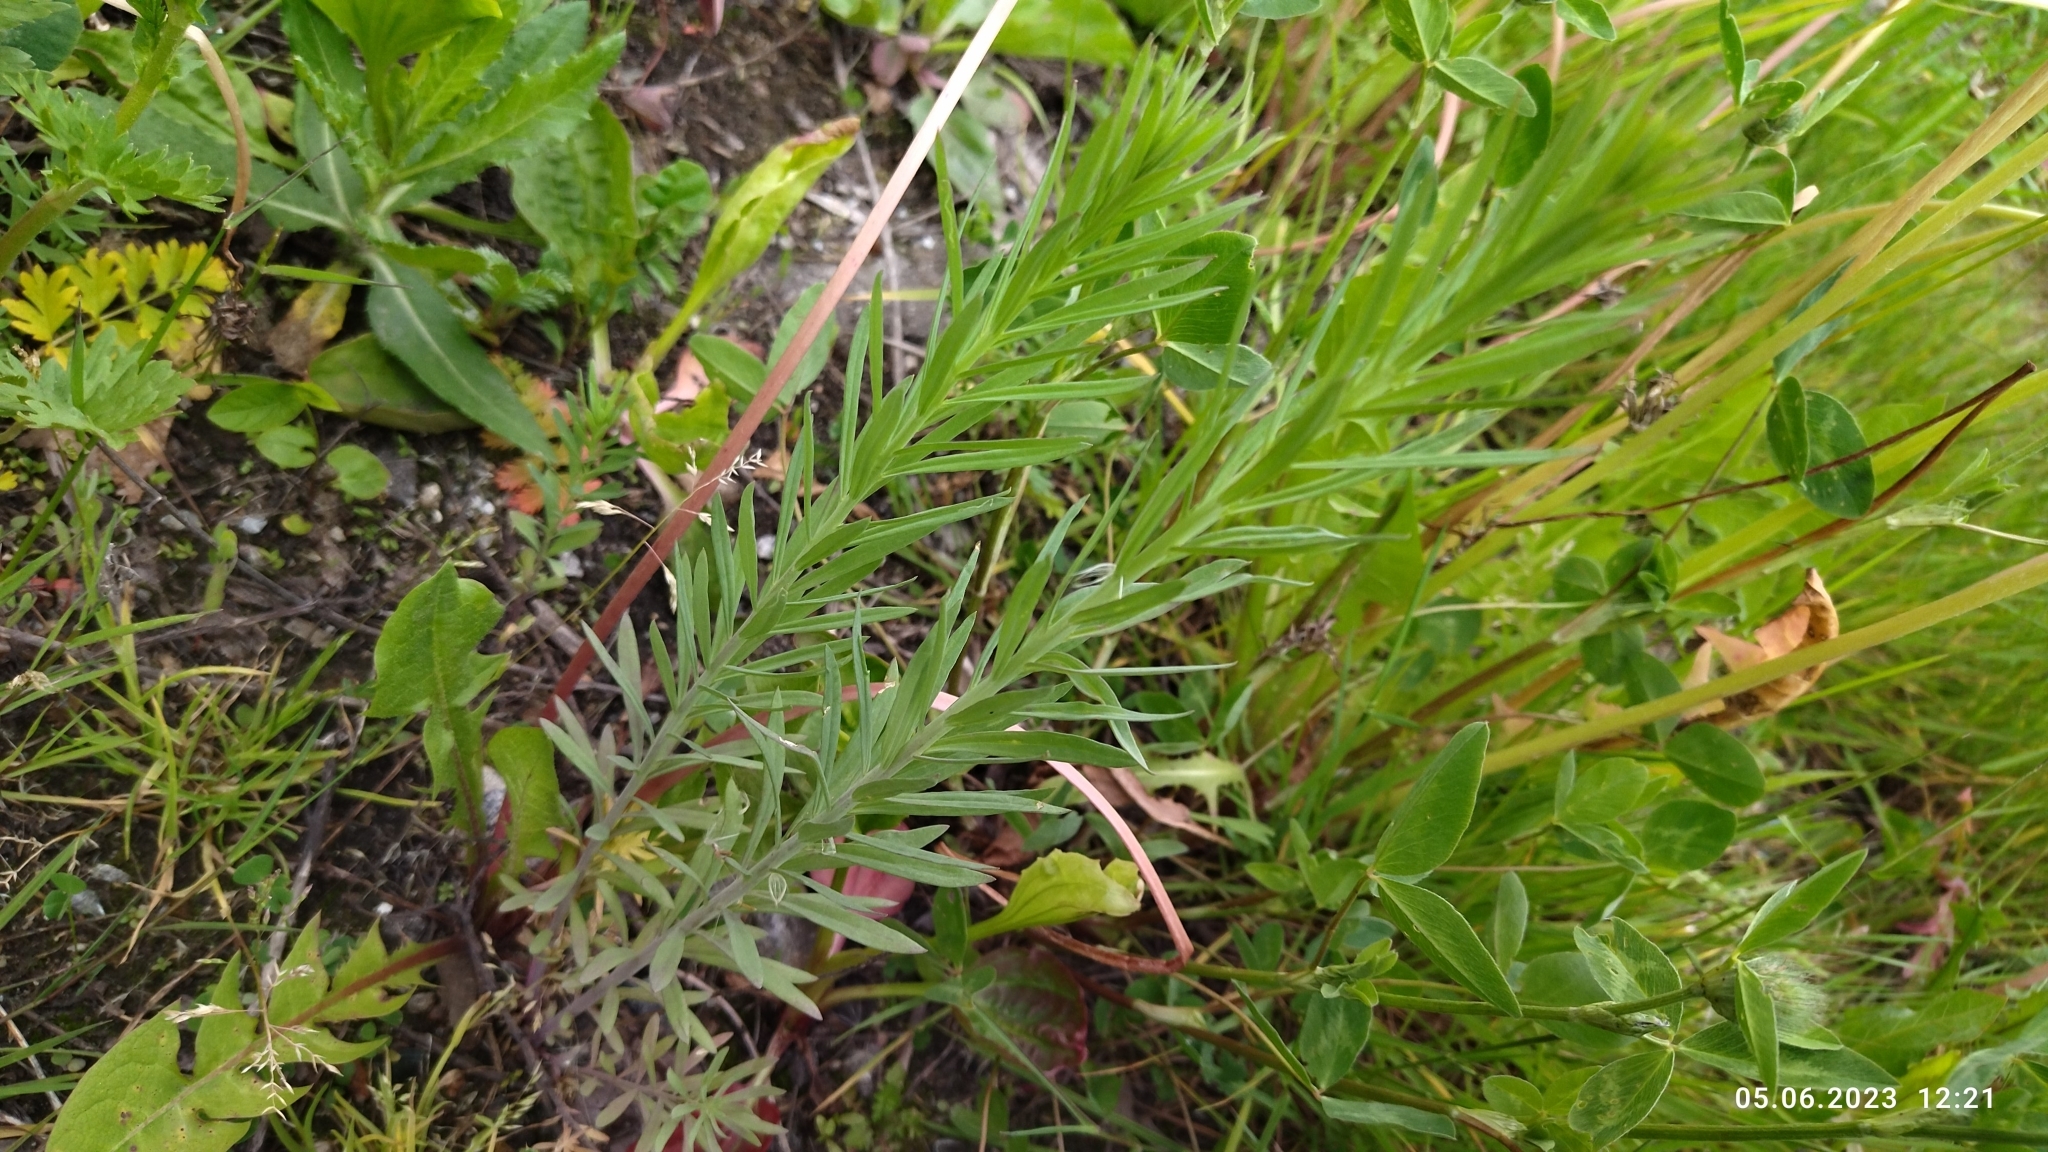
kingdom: Plantae
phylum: Tracheophyta
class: Magnoliopsida
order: Lamiales
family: Plantaginaceae
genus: Linaria
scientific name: Linaria vulgaris
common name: Butter and eggs
